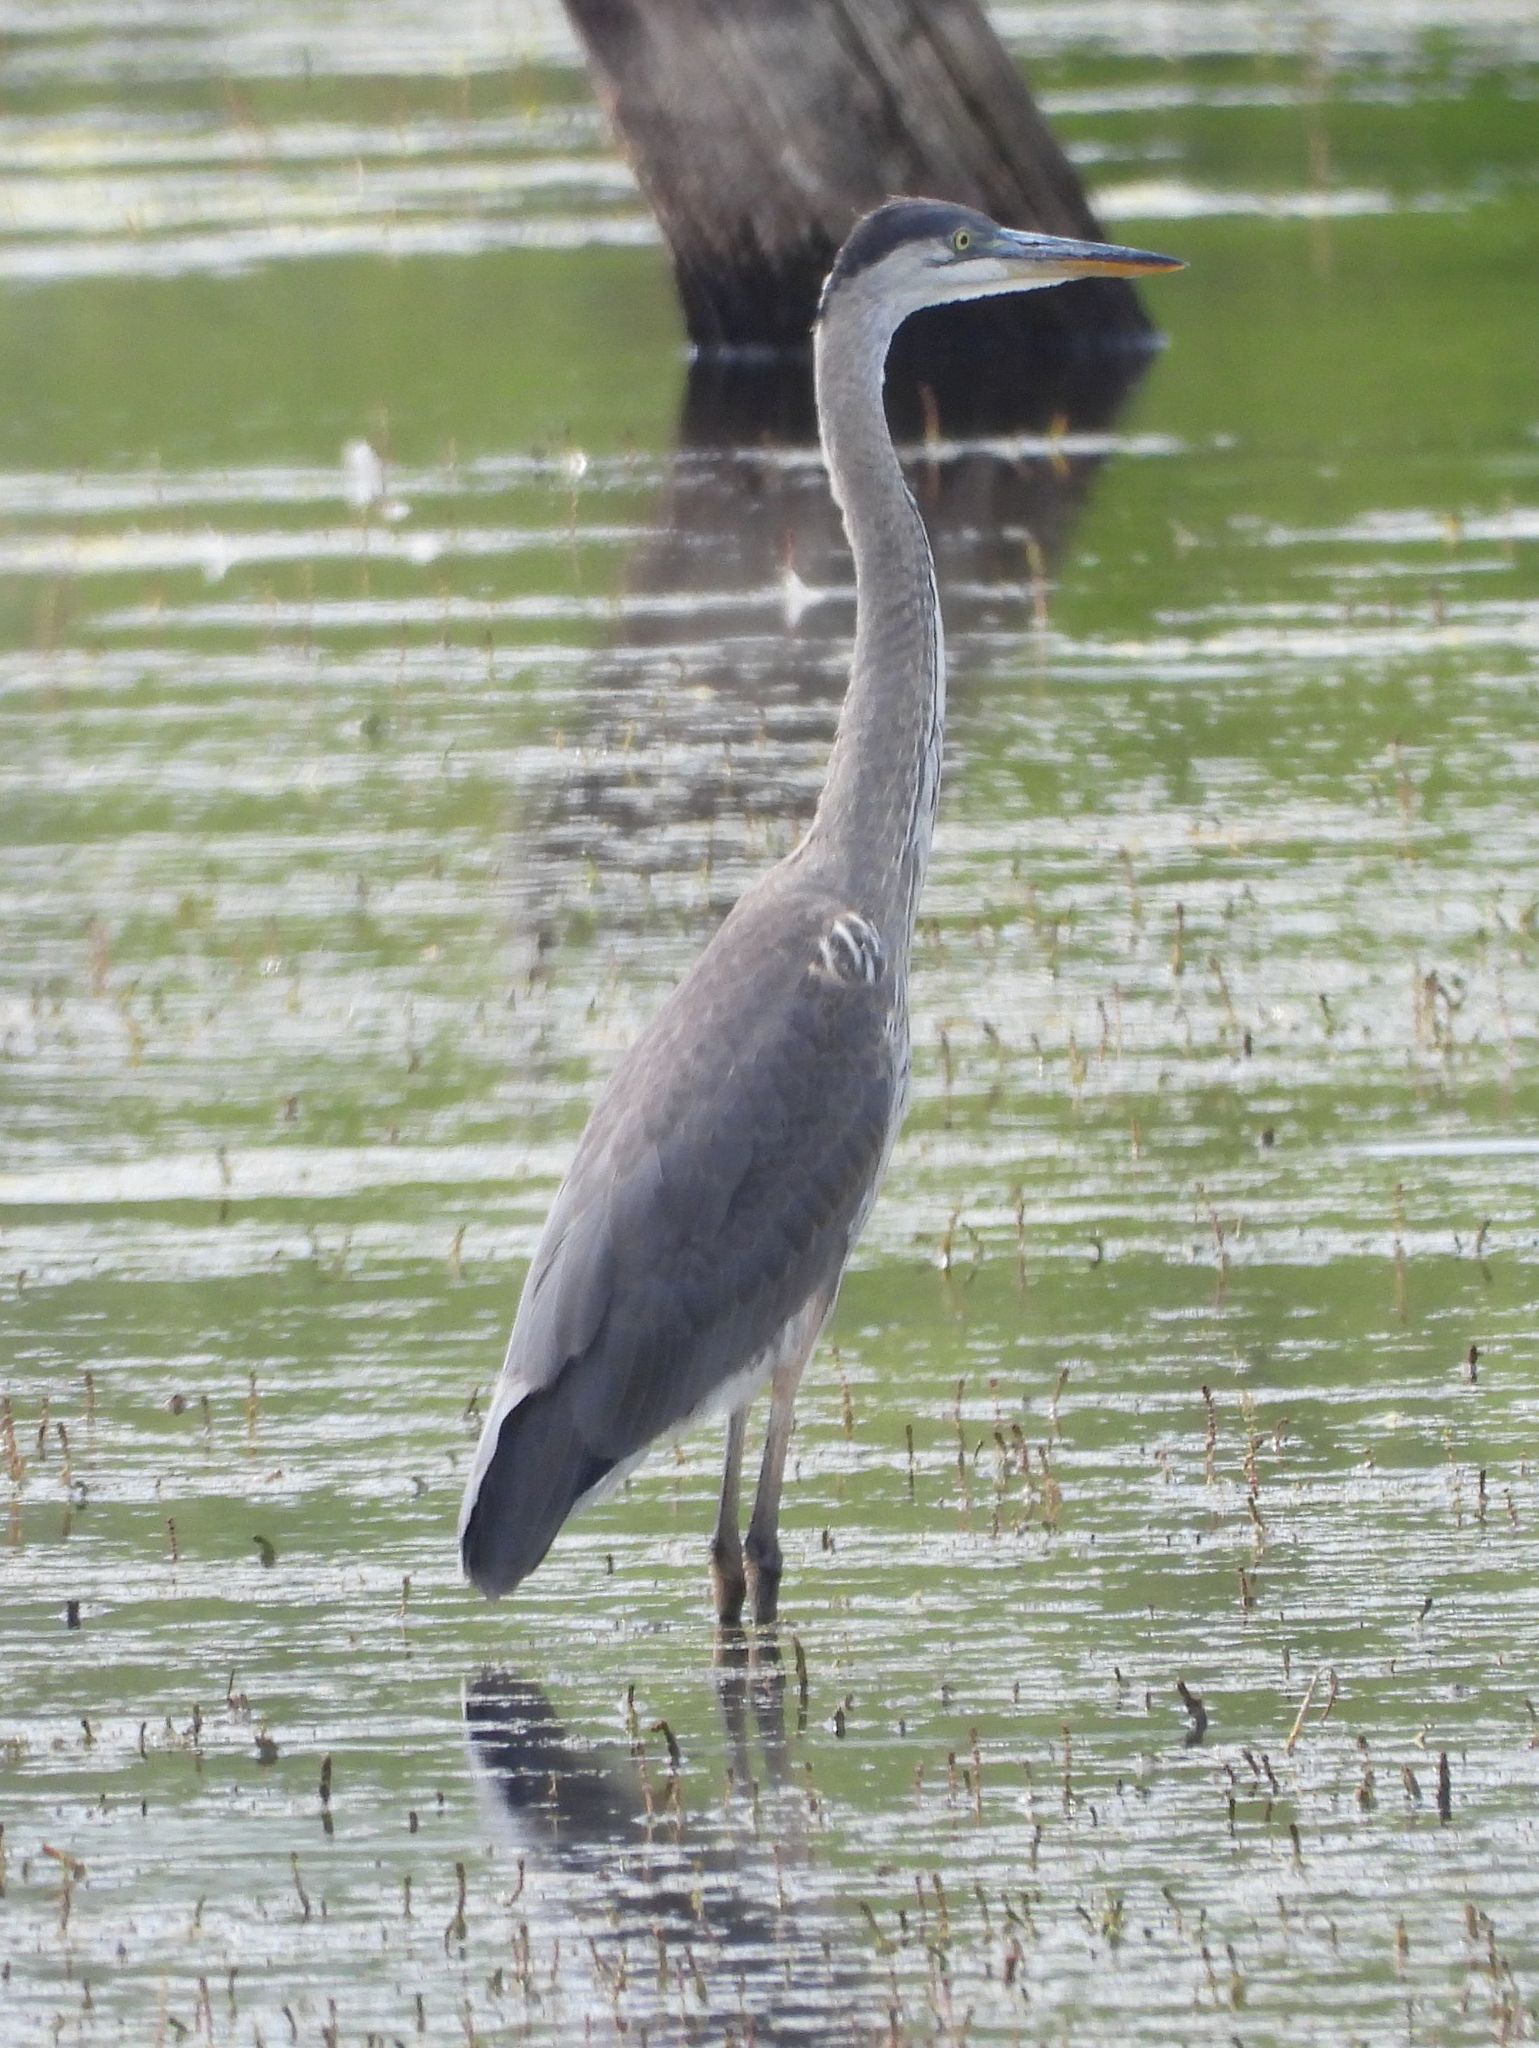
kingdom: Animalia
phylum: Chordata
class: Aves
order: Pelecaniformes
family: Ardeidae
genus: Ardea
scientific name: Ardea herodias
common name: Great blue heron
